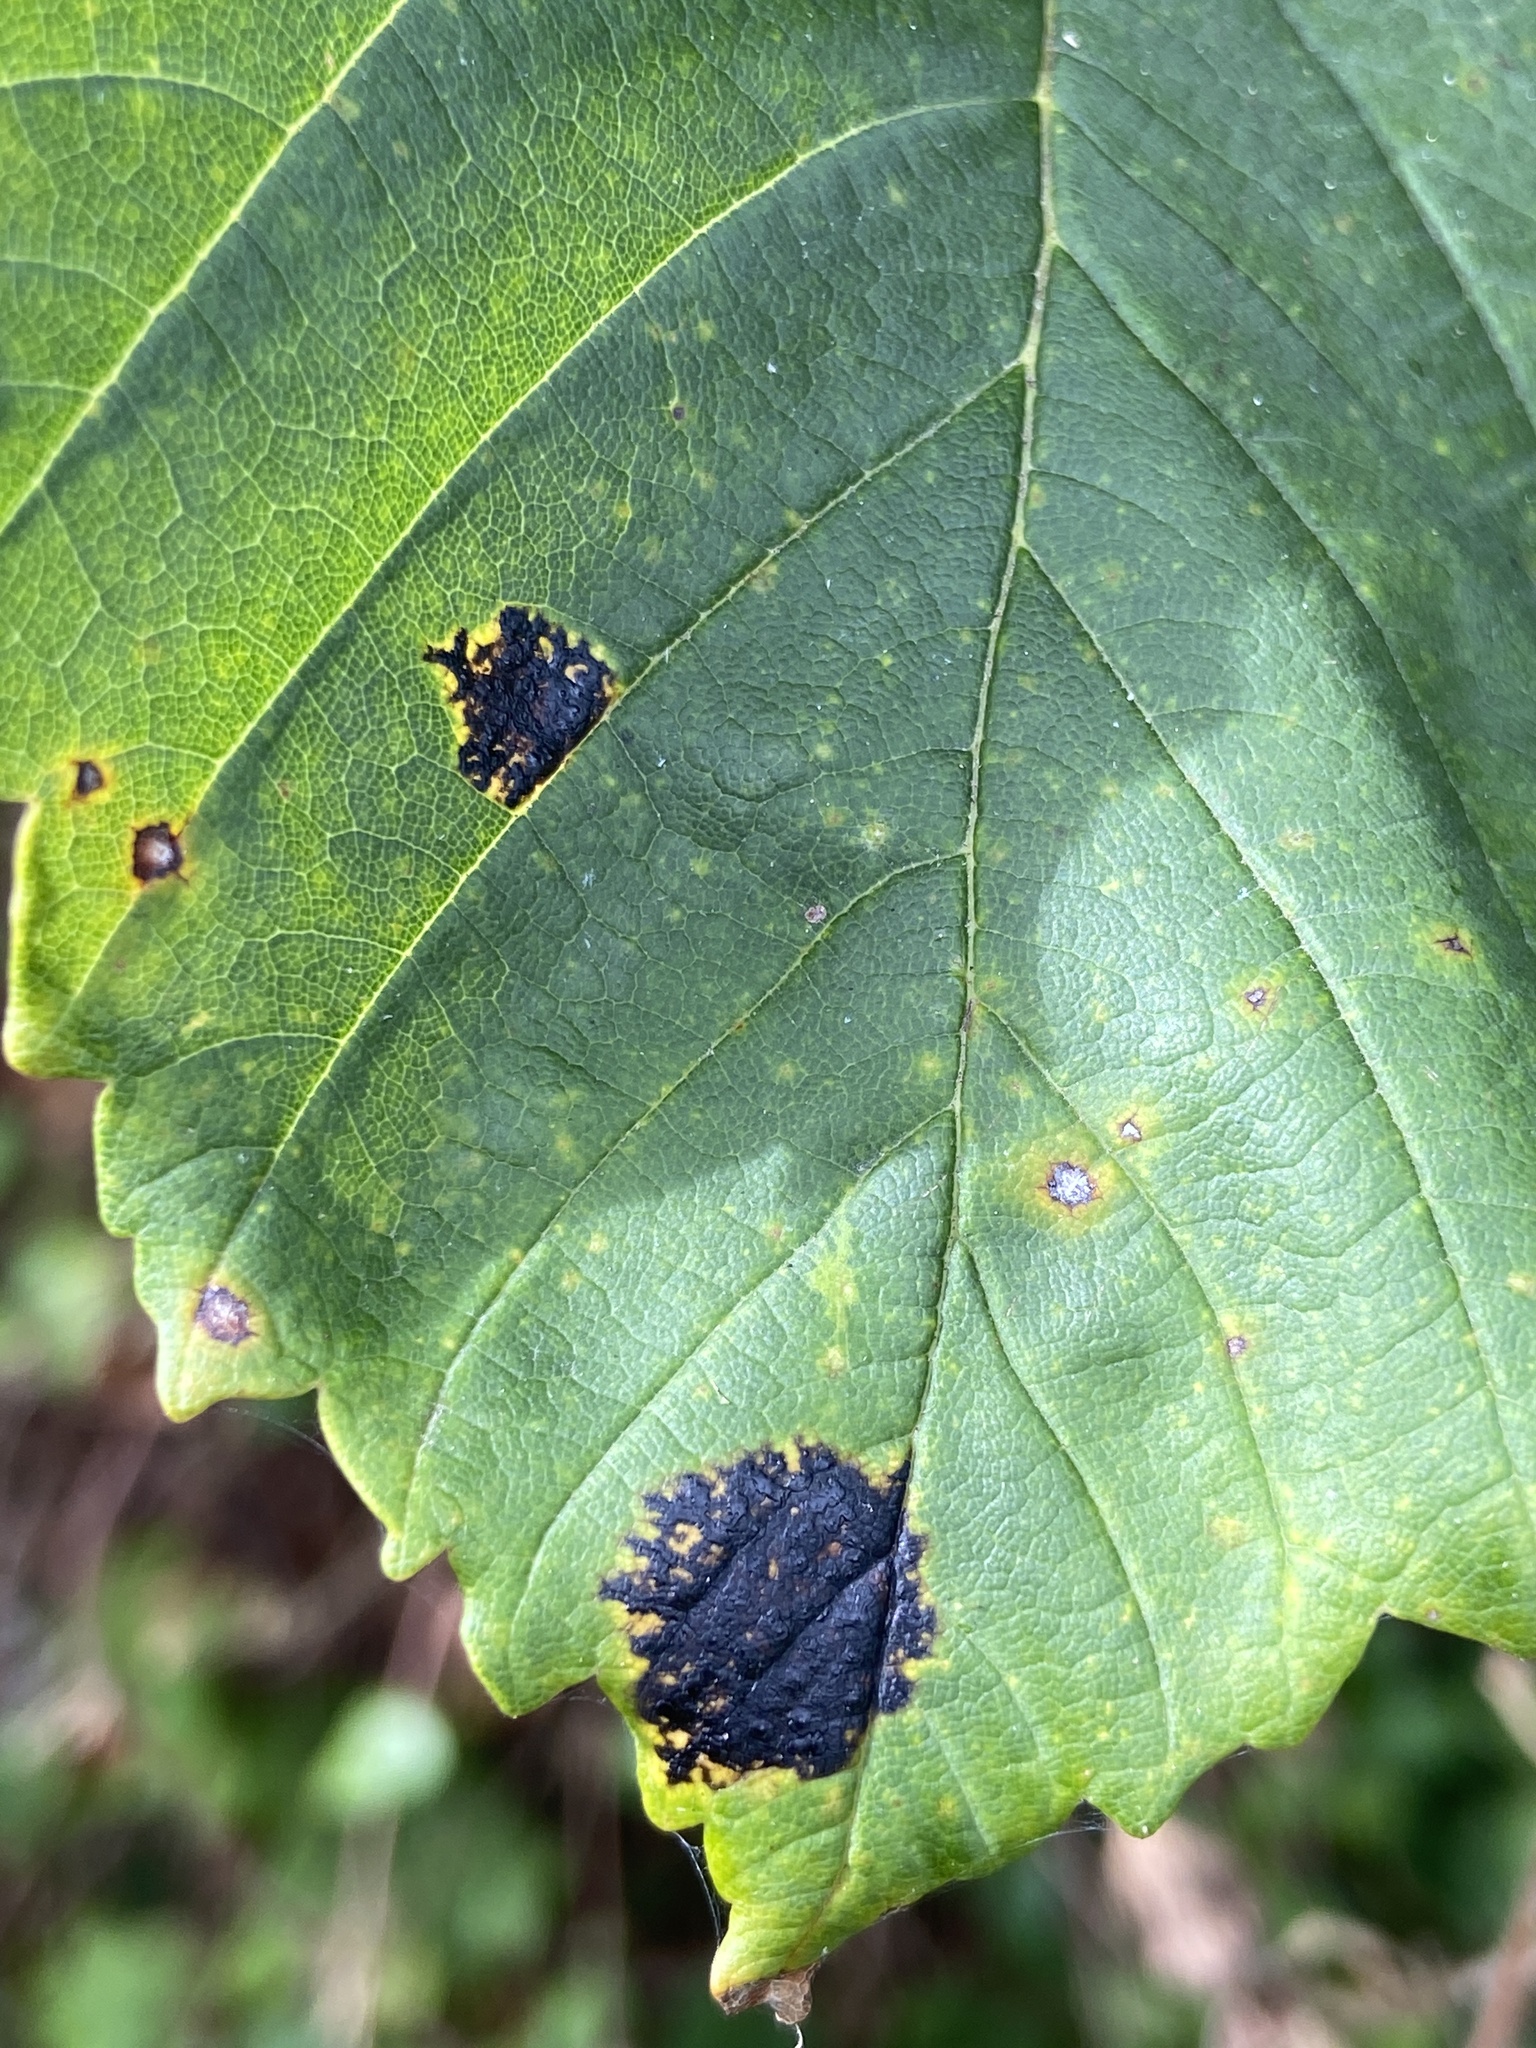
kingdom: Fungi
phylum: Ascomycota
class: Leotiomycetes
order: Rhytismatales
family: Rhytismataceae
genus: Rhytisma
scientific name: Rhytisma acerinum
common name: European tar spot
